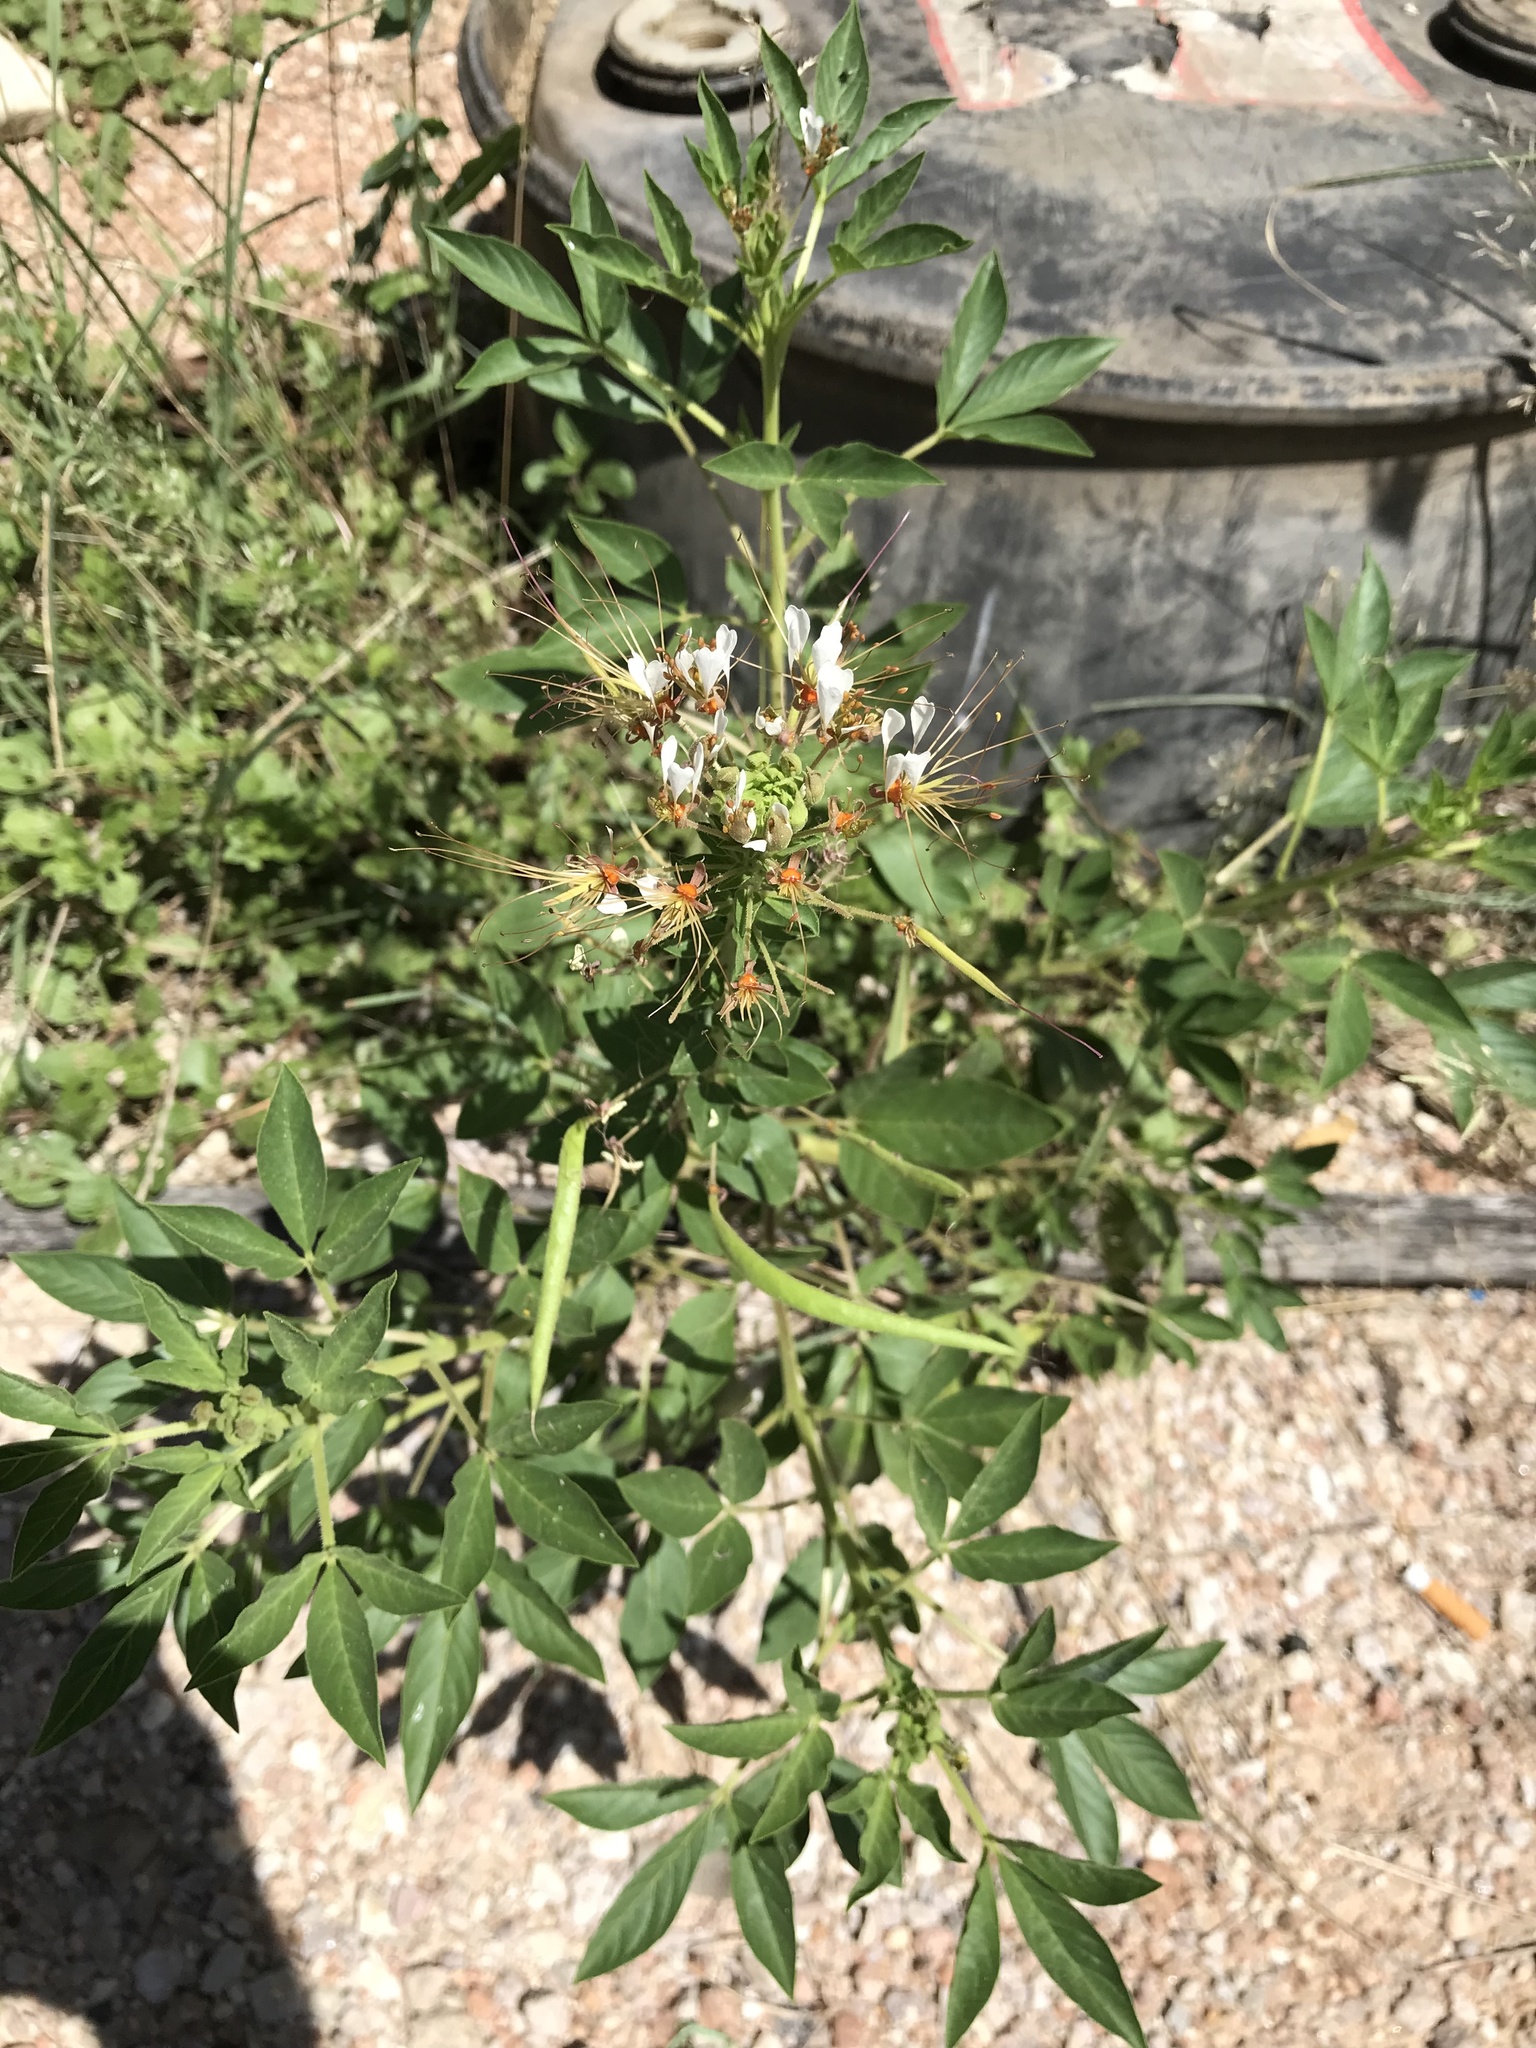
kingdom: Plantae
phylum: Tracheophyta
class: Magnoliopsida
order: Brassicales
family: Cleomaceae
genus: Polanisia
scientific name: Polanisia dodecandra
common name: Clammyweed
